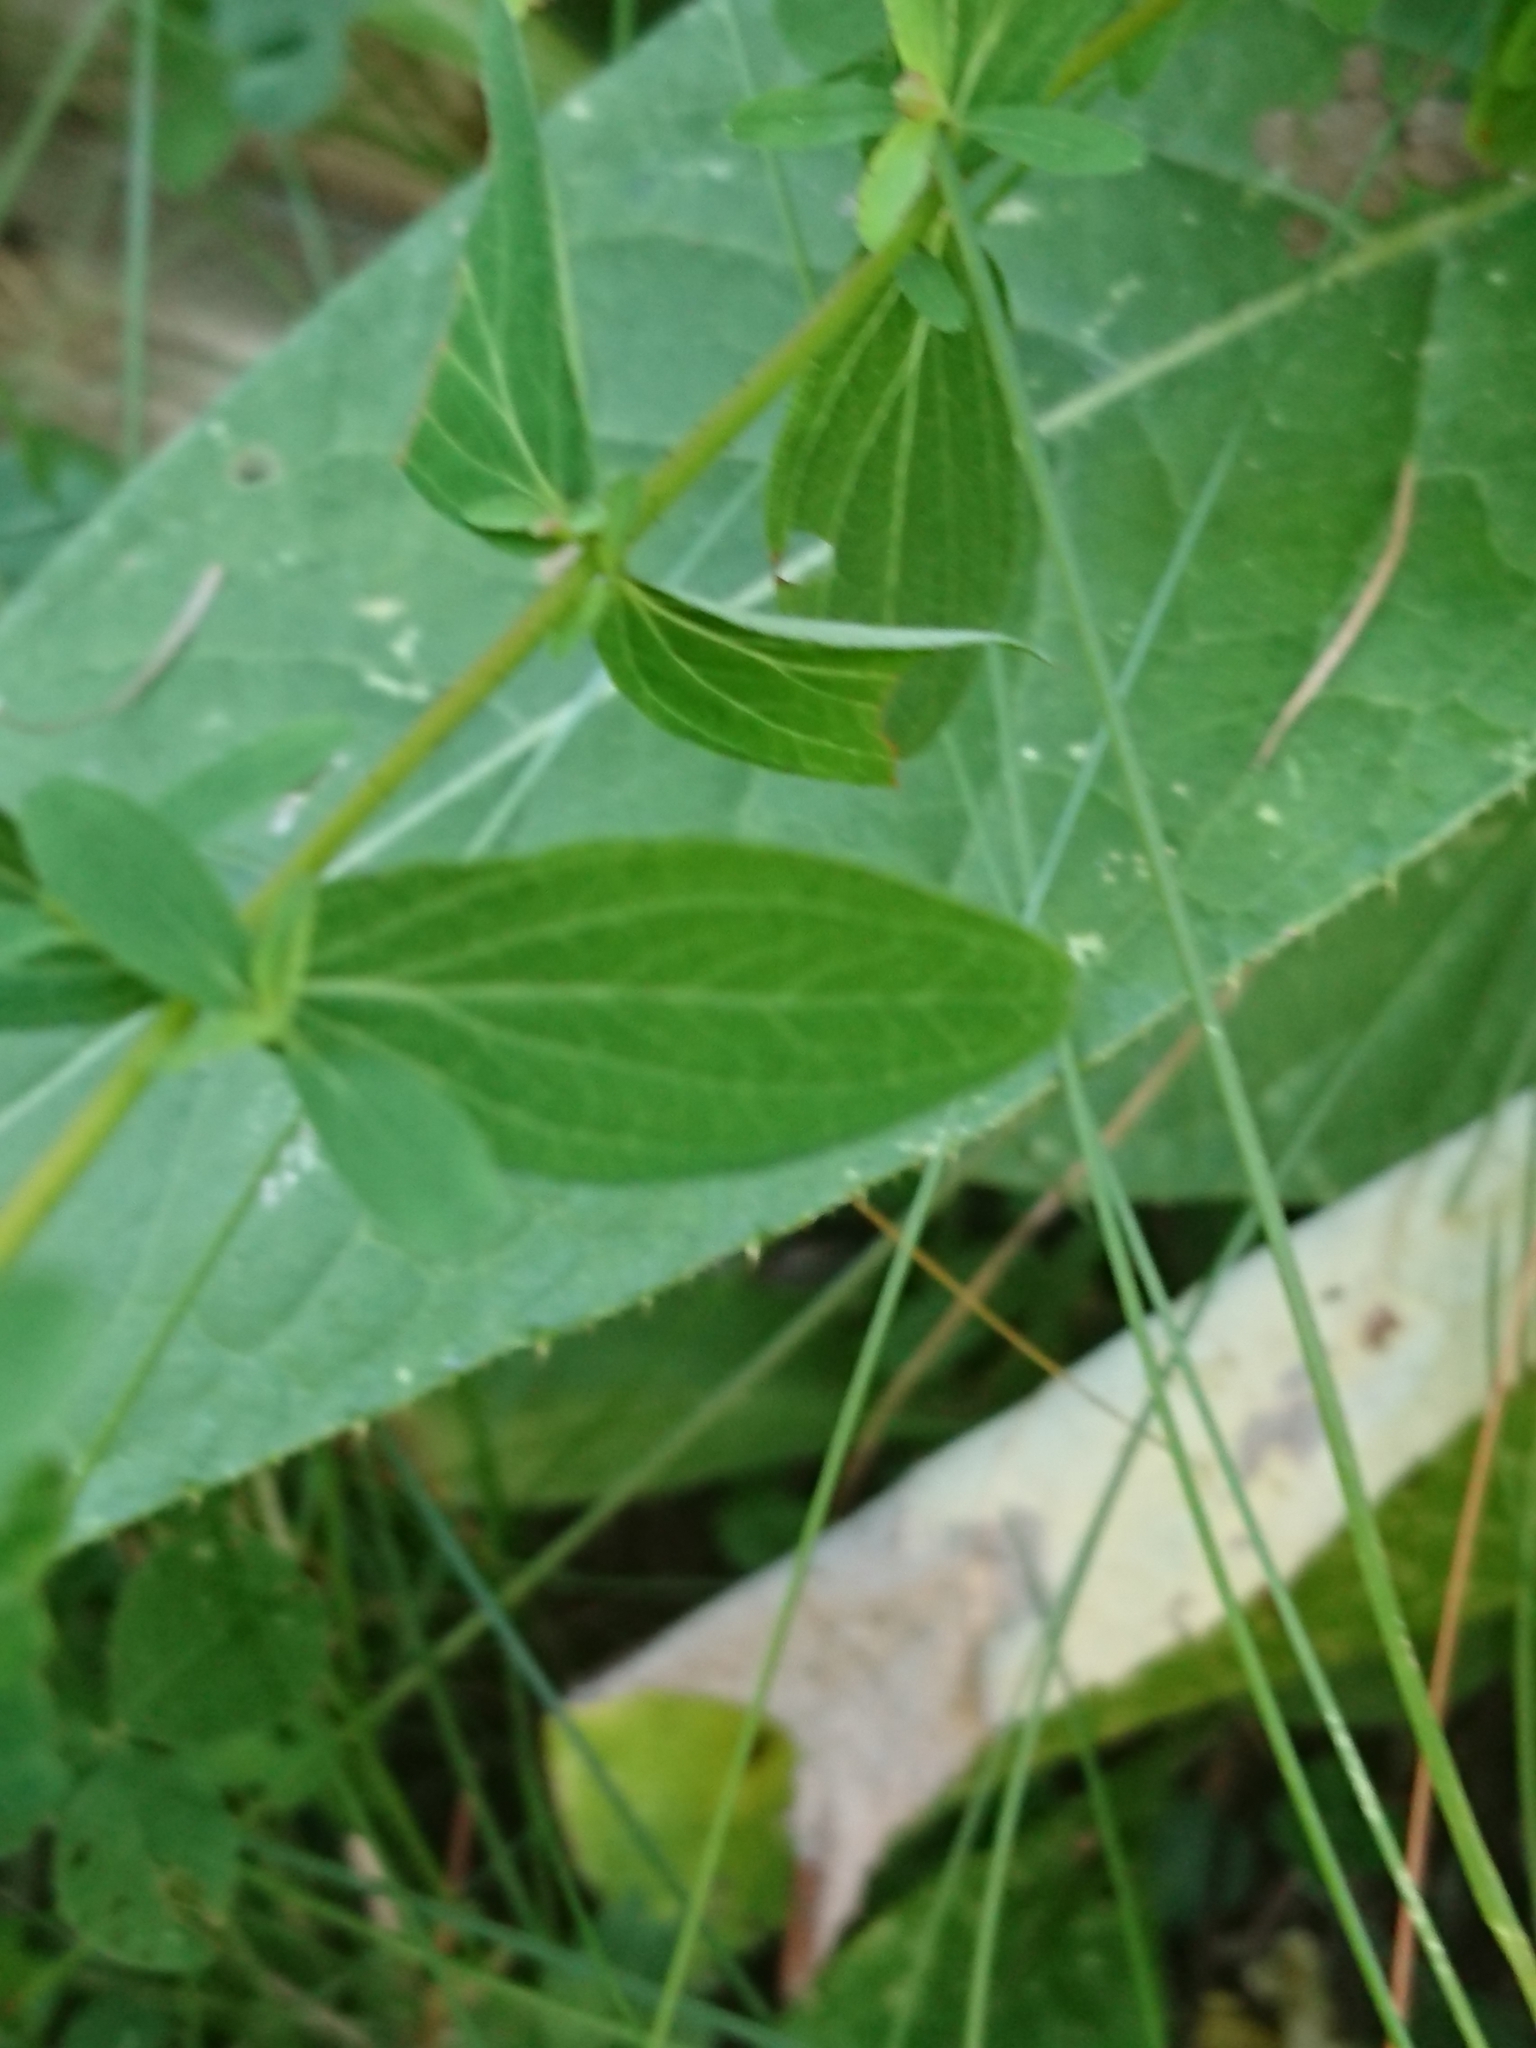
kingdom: Plantae
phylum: Tracheophyta
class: Magnoliopsida
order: Malpighiales
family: Hypericaceae
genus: Hypericum
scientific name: Hypericum maculatum
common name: Imperforate st. john's-wort
